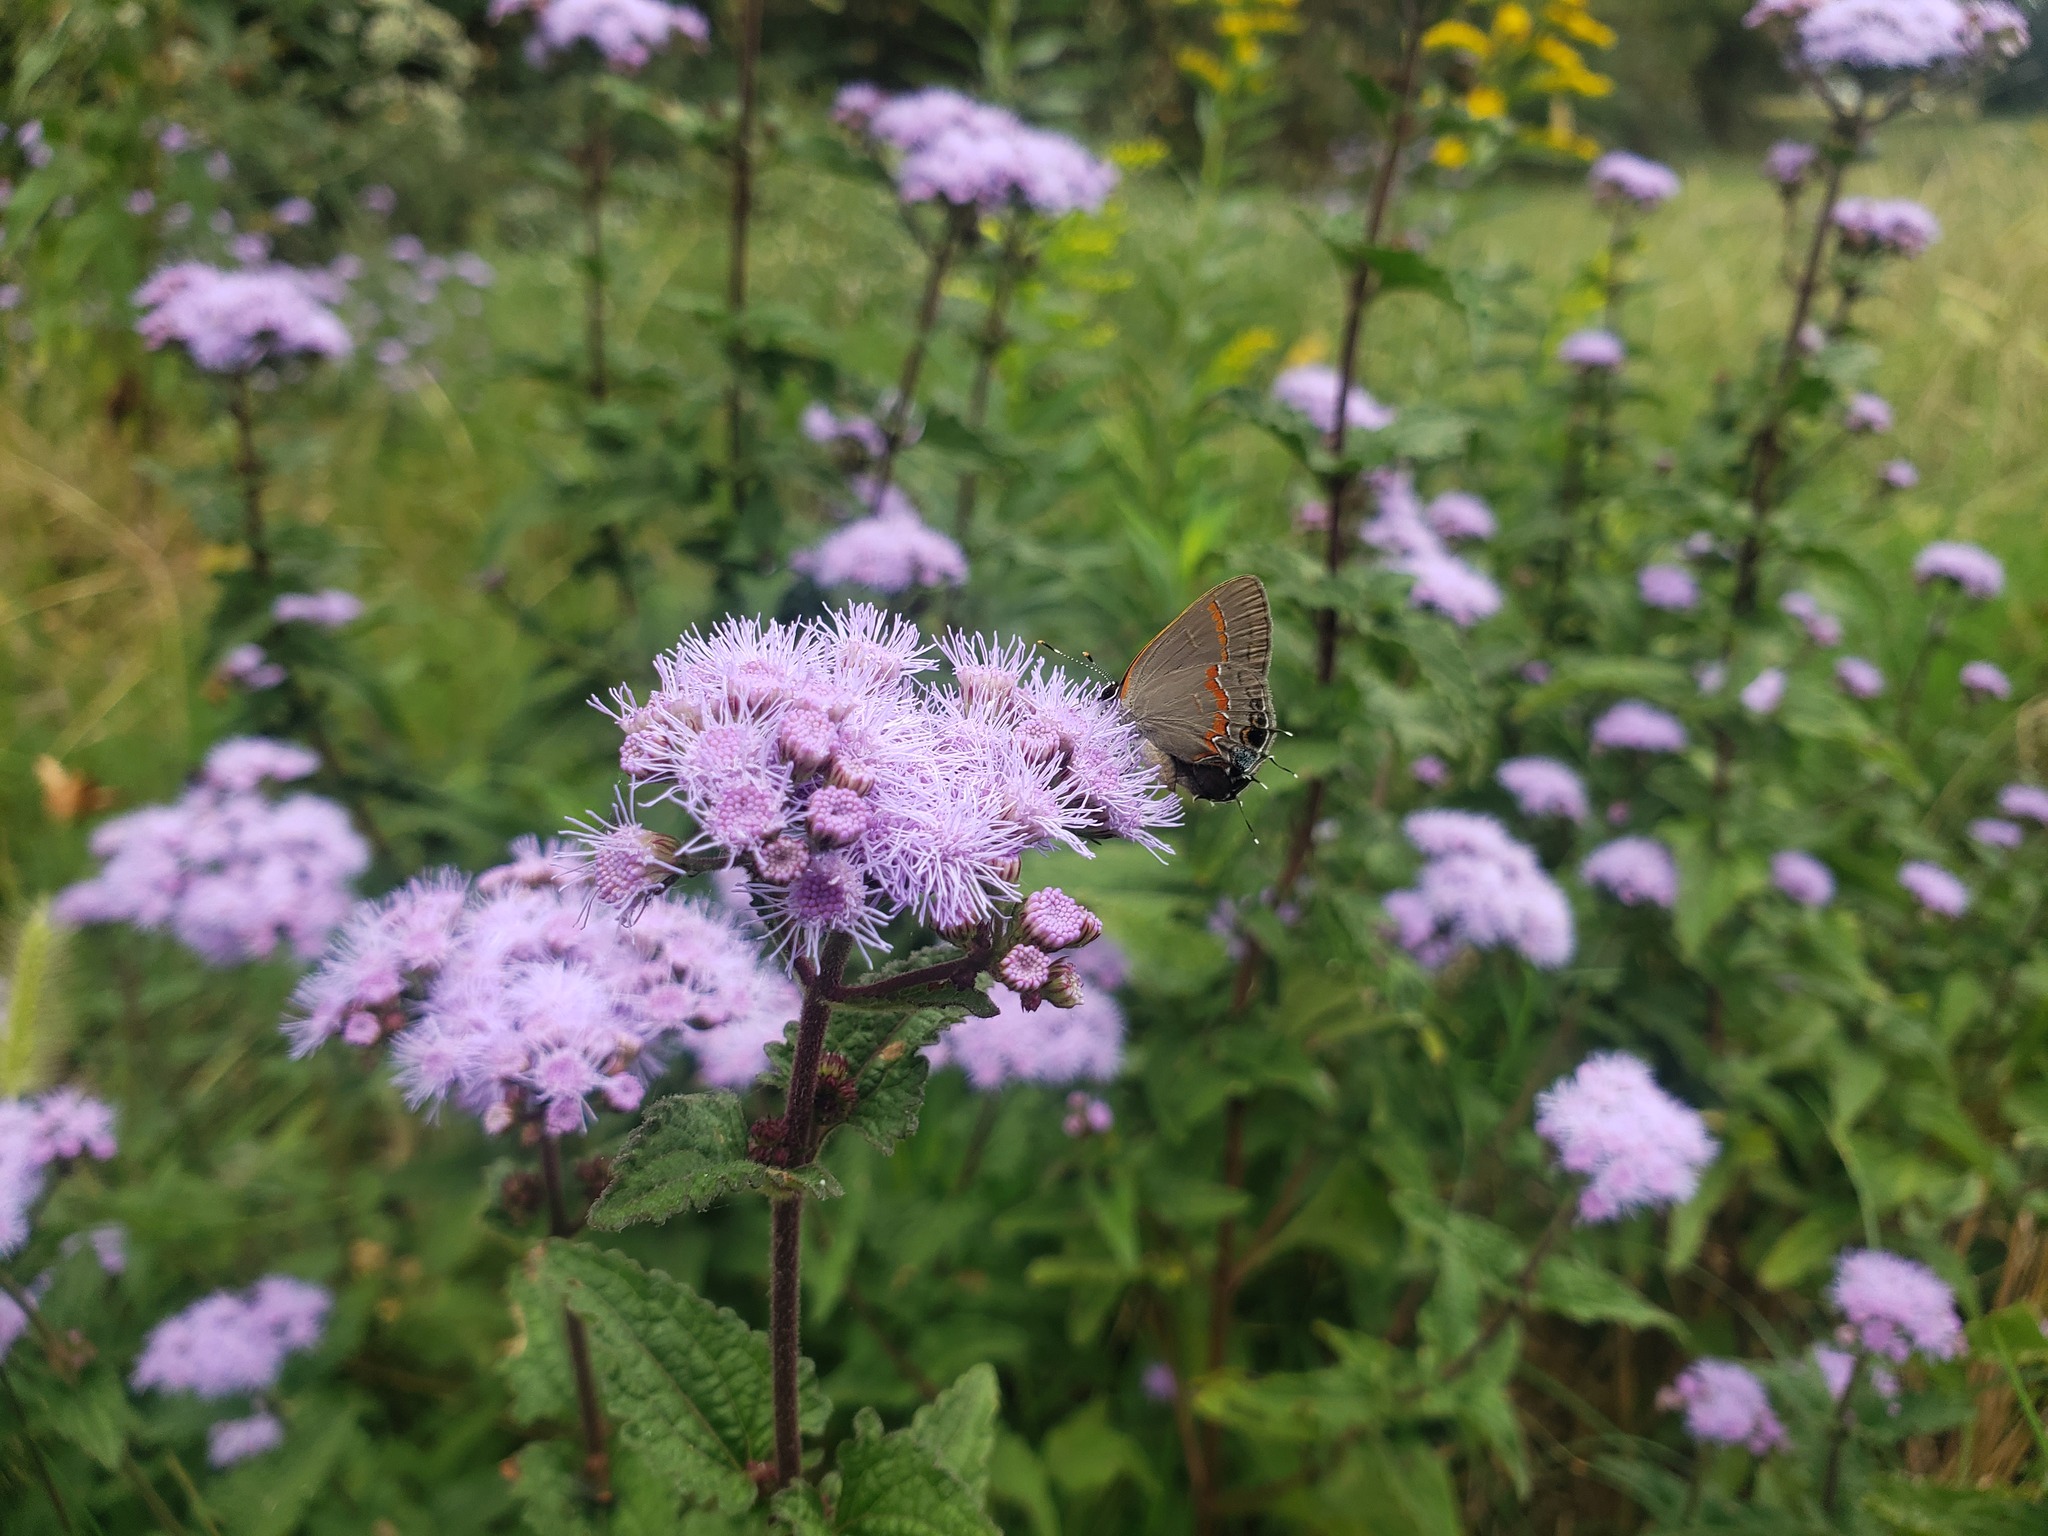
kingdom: Animalia
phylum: Arthropoda
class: Insecta
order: Lepidoptera
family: Lycaenidae
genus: Calycopis
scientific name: Calycopis cecrops
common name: Red-banded hairstreak
